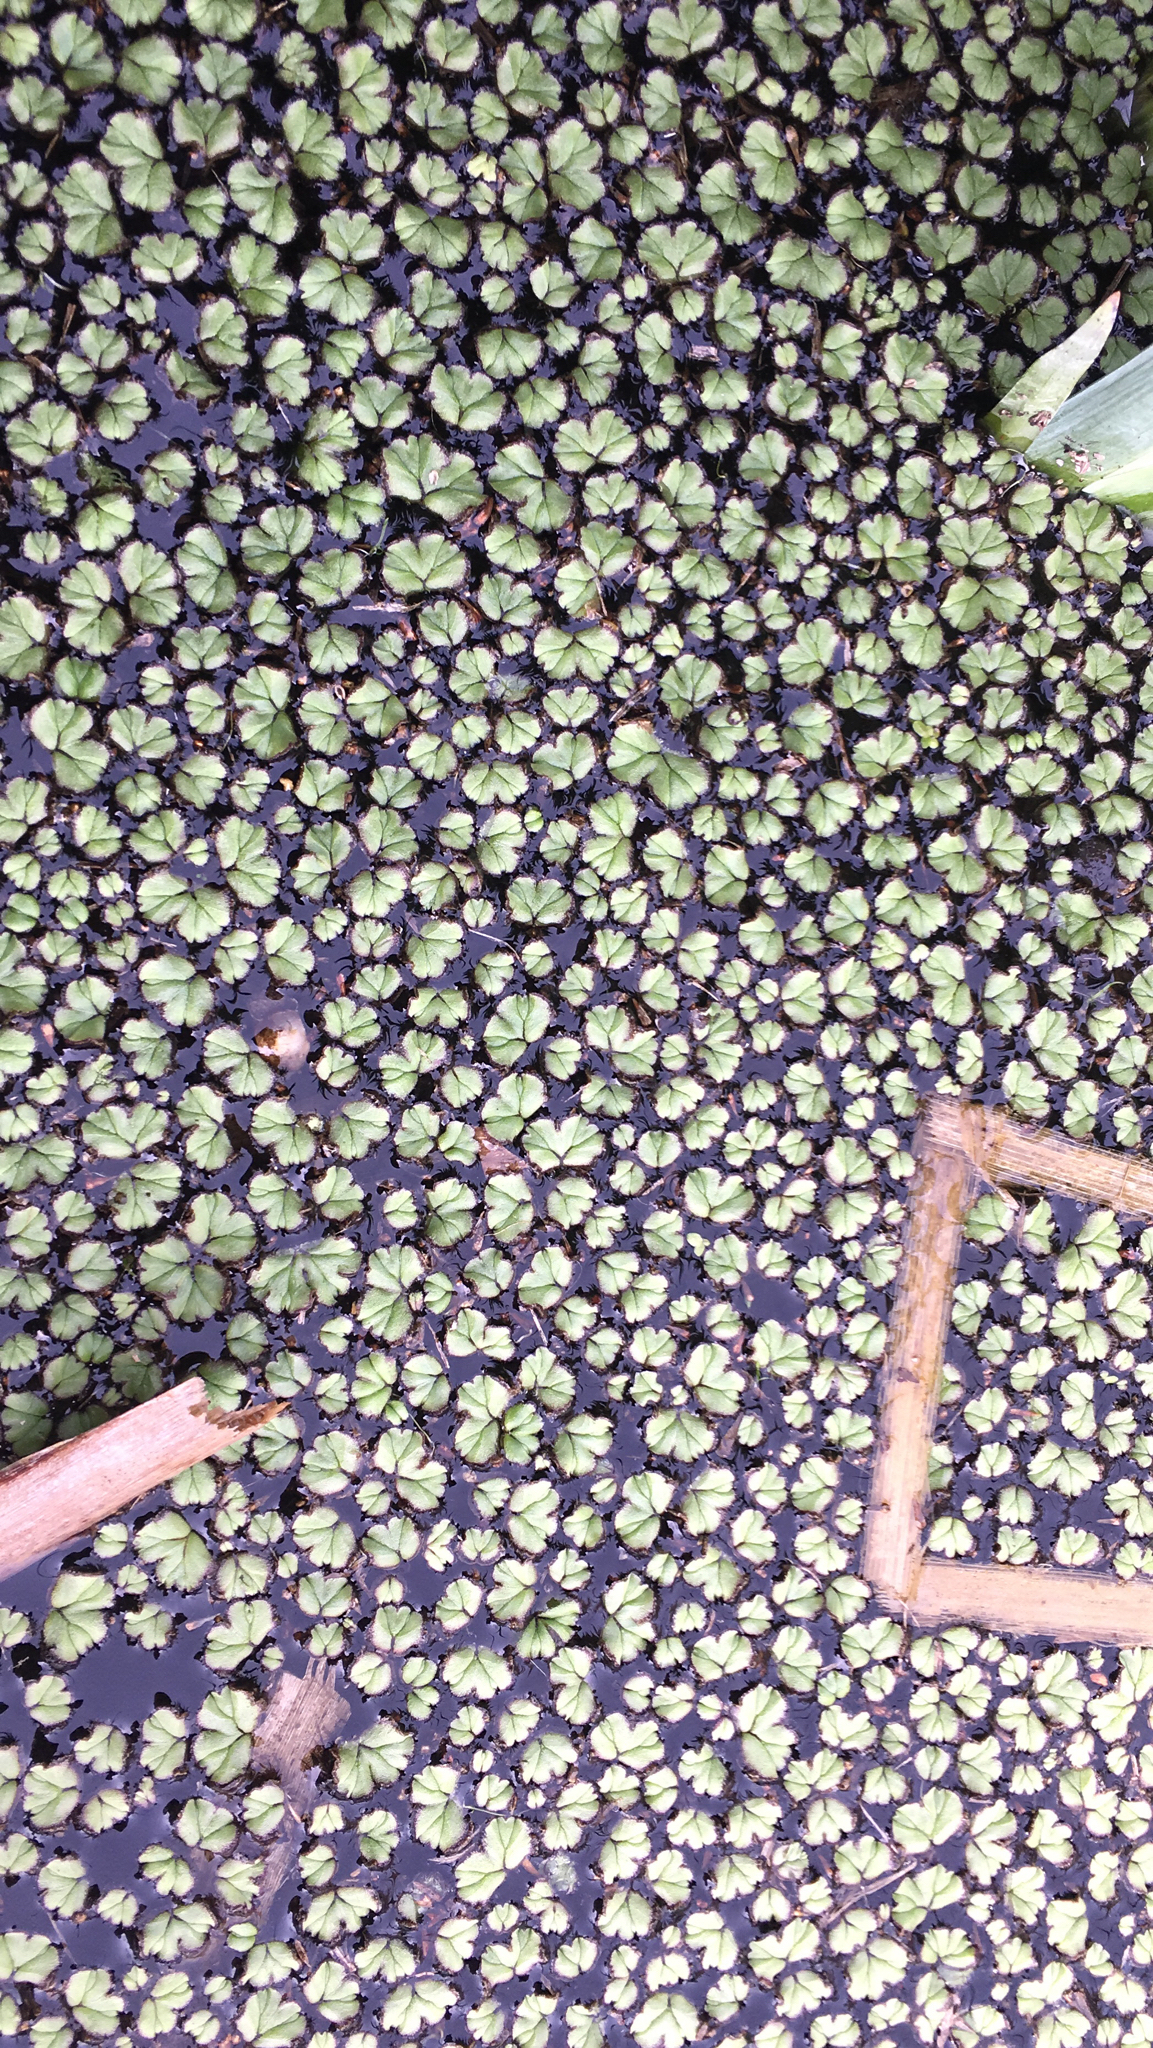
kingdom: Plantae
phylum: Marchantiophyta
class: Marchantiopsida
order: Marchantiales
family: Ricciaceae
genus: Ricciocarpos
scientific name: Ricciocarpos natans
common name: Purple-fringed liverwort
